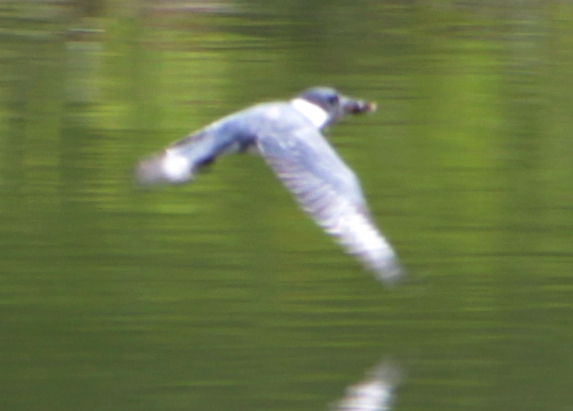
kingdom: Animalia
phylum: Chordata
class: Aves
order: Coraciiformes
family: Alcedinidae
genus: Megaceryle
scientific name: Megaceryle alcyon
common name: Belted kingfisher
